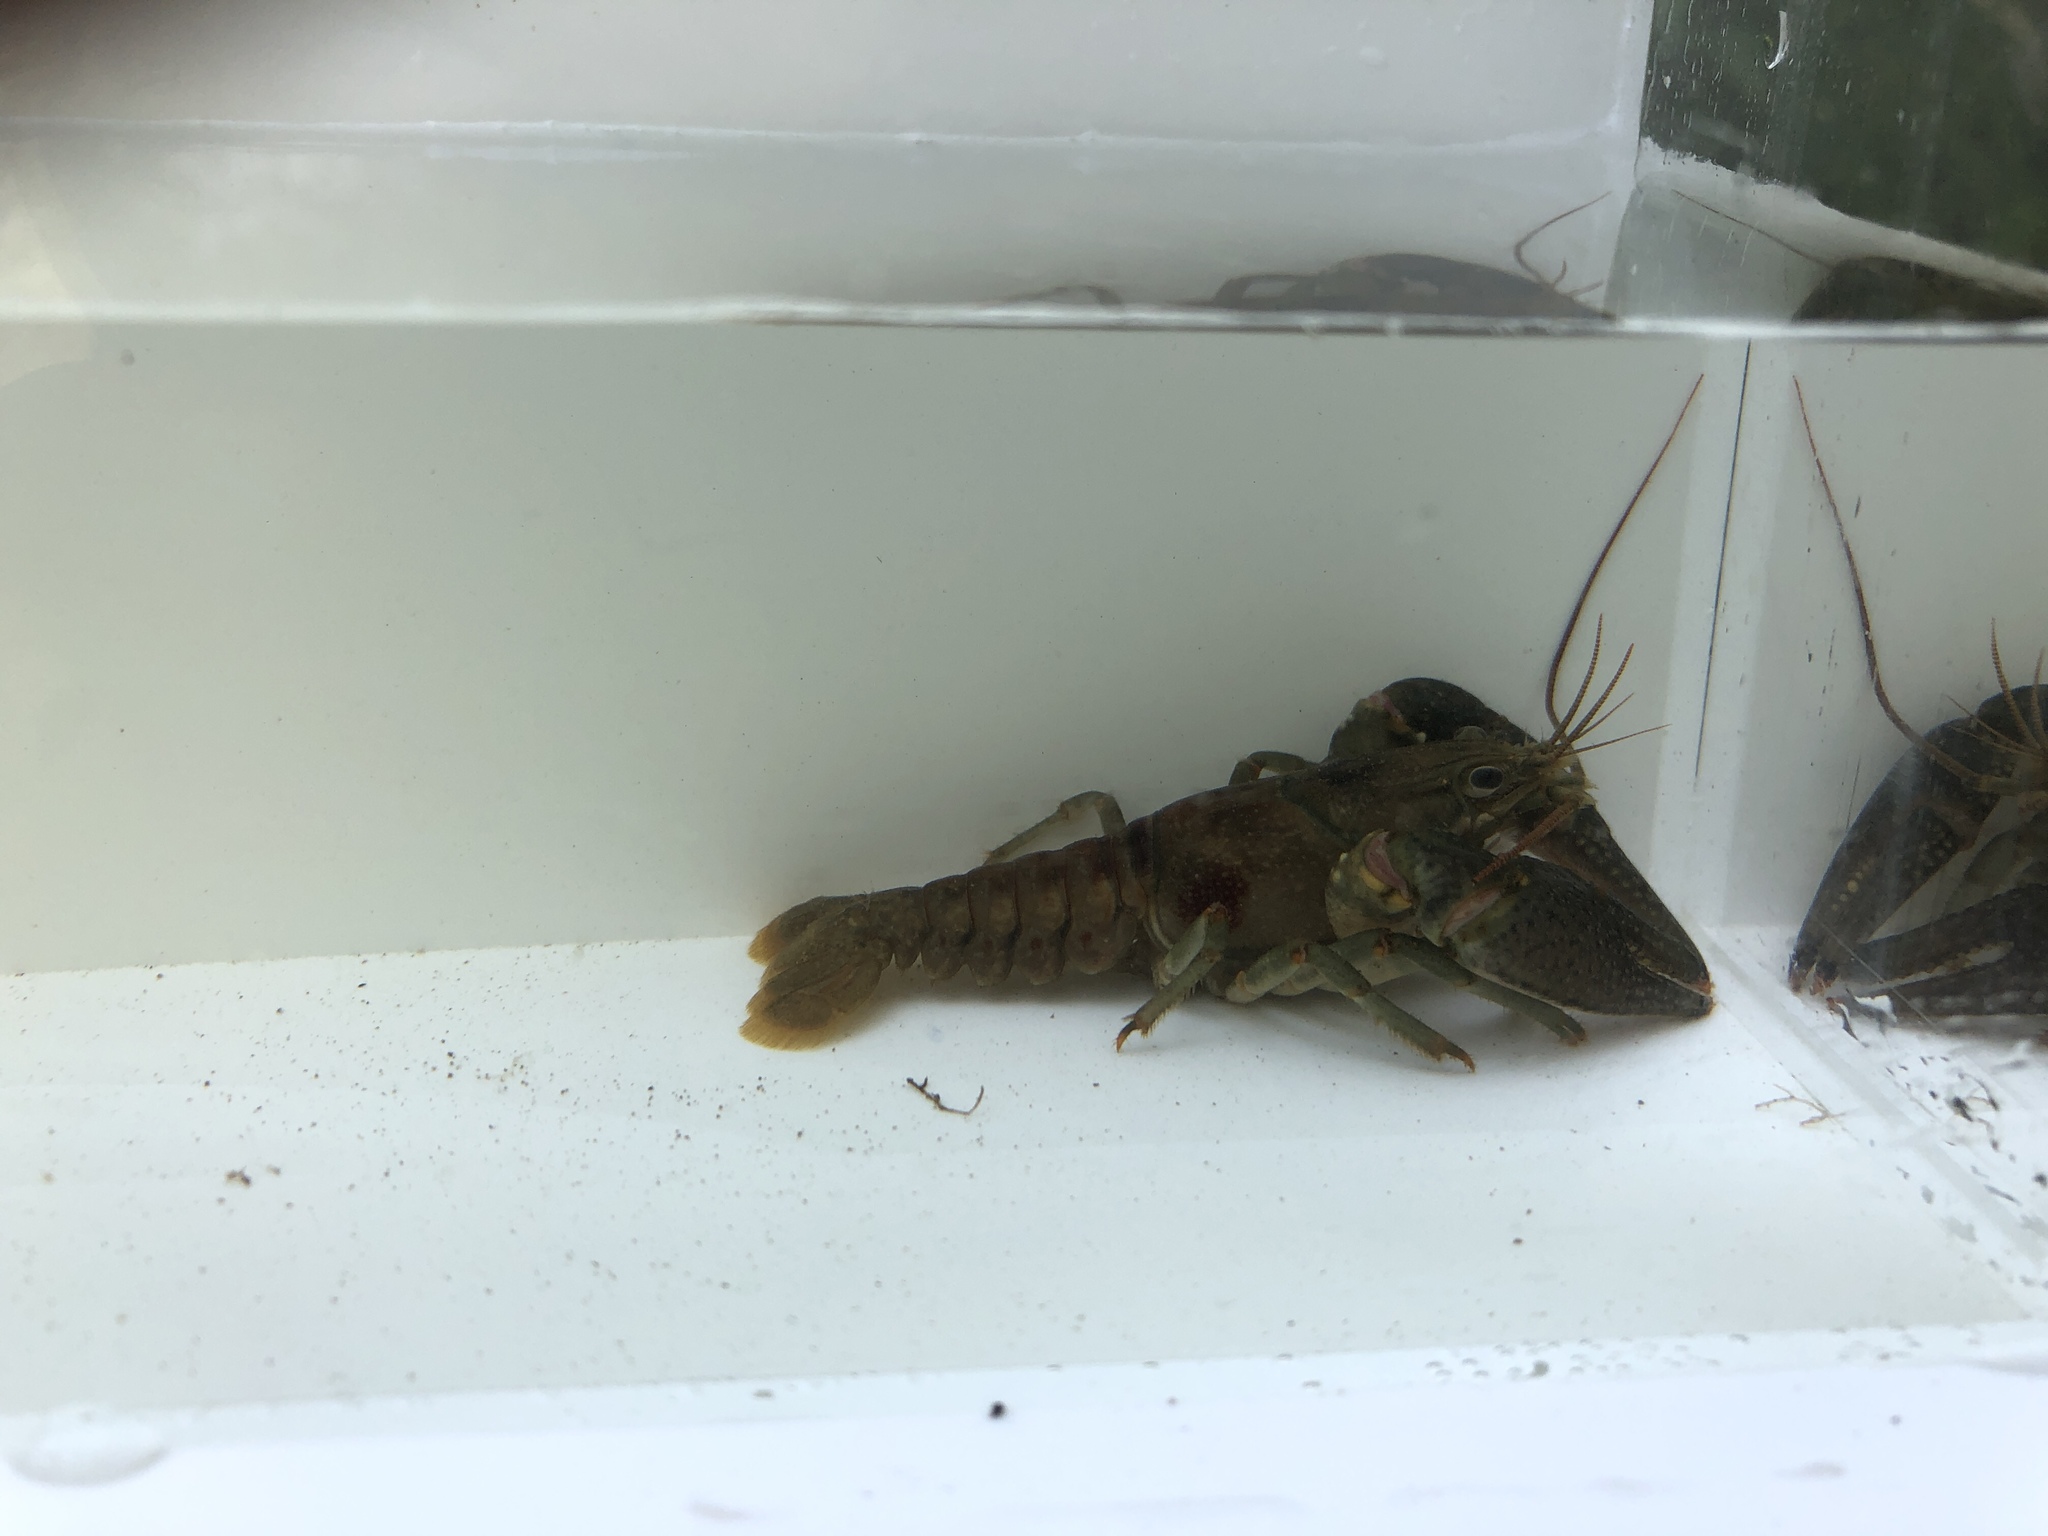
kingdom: Animalia
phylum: Arthropoda
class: Malacostraca
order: Decapoda
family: Cambaridae
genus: Faxonius
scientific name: Faxonius rusticus
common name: Rusty crayfish
